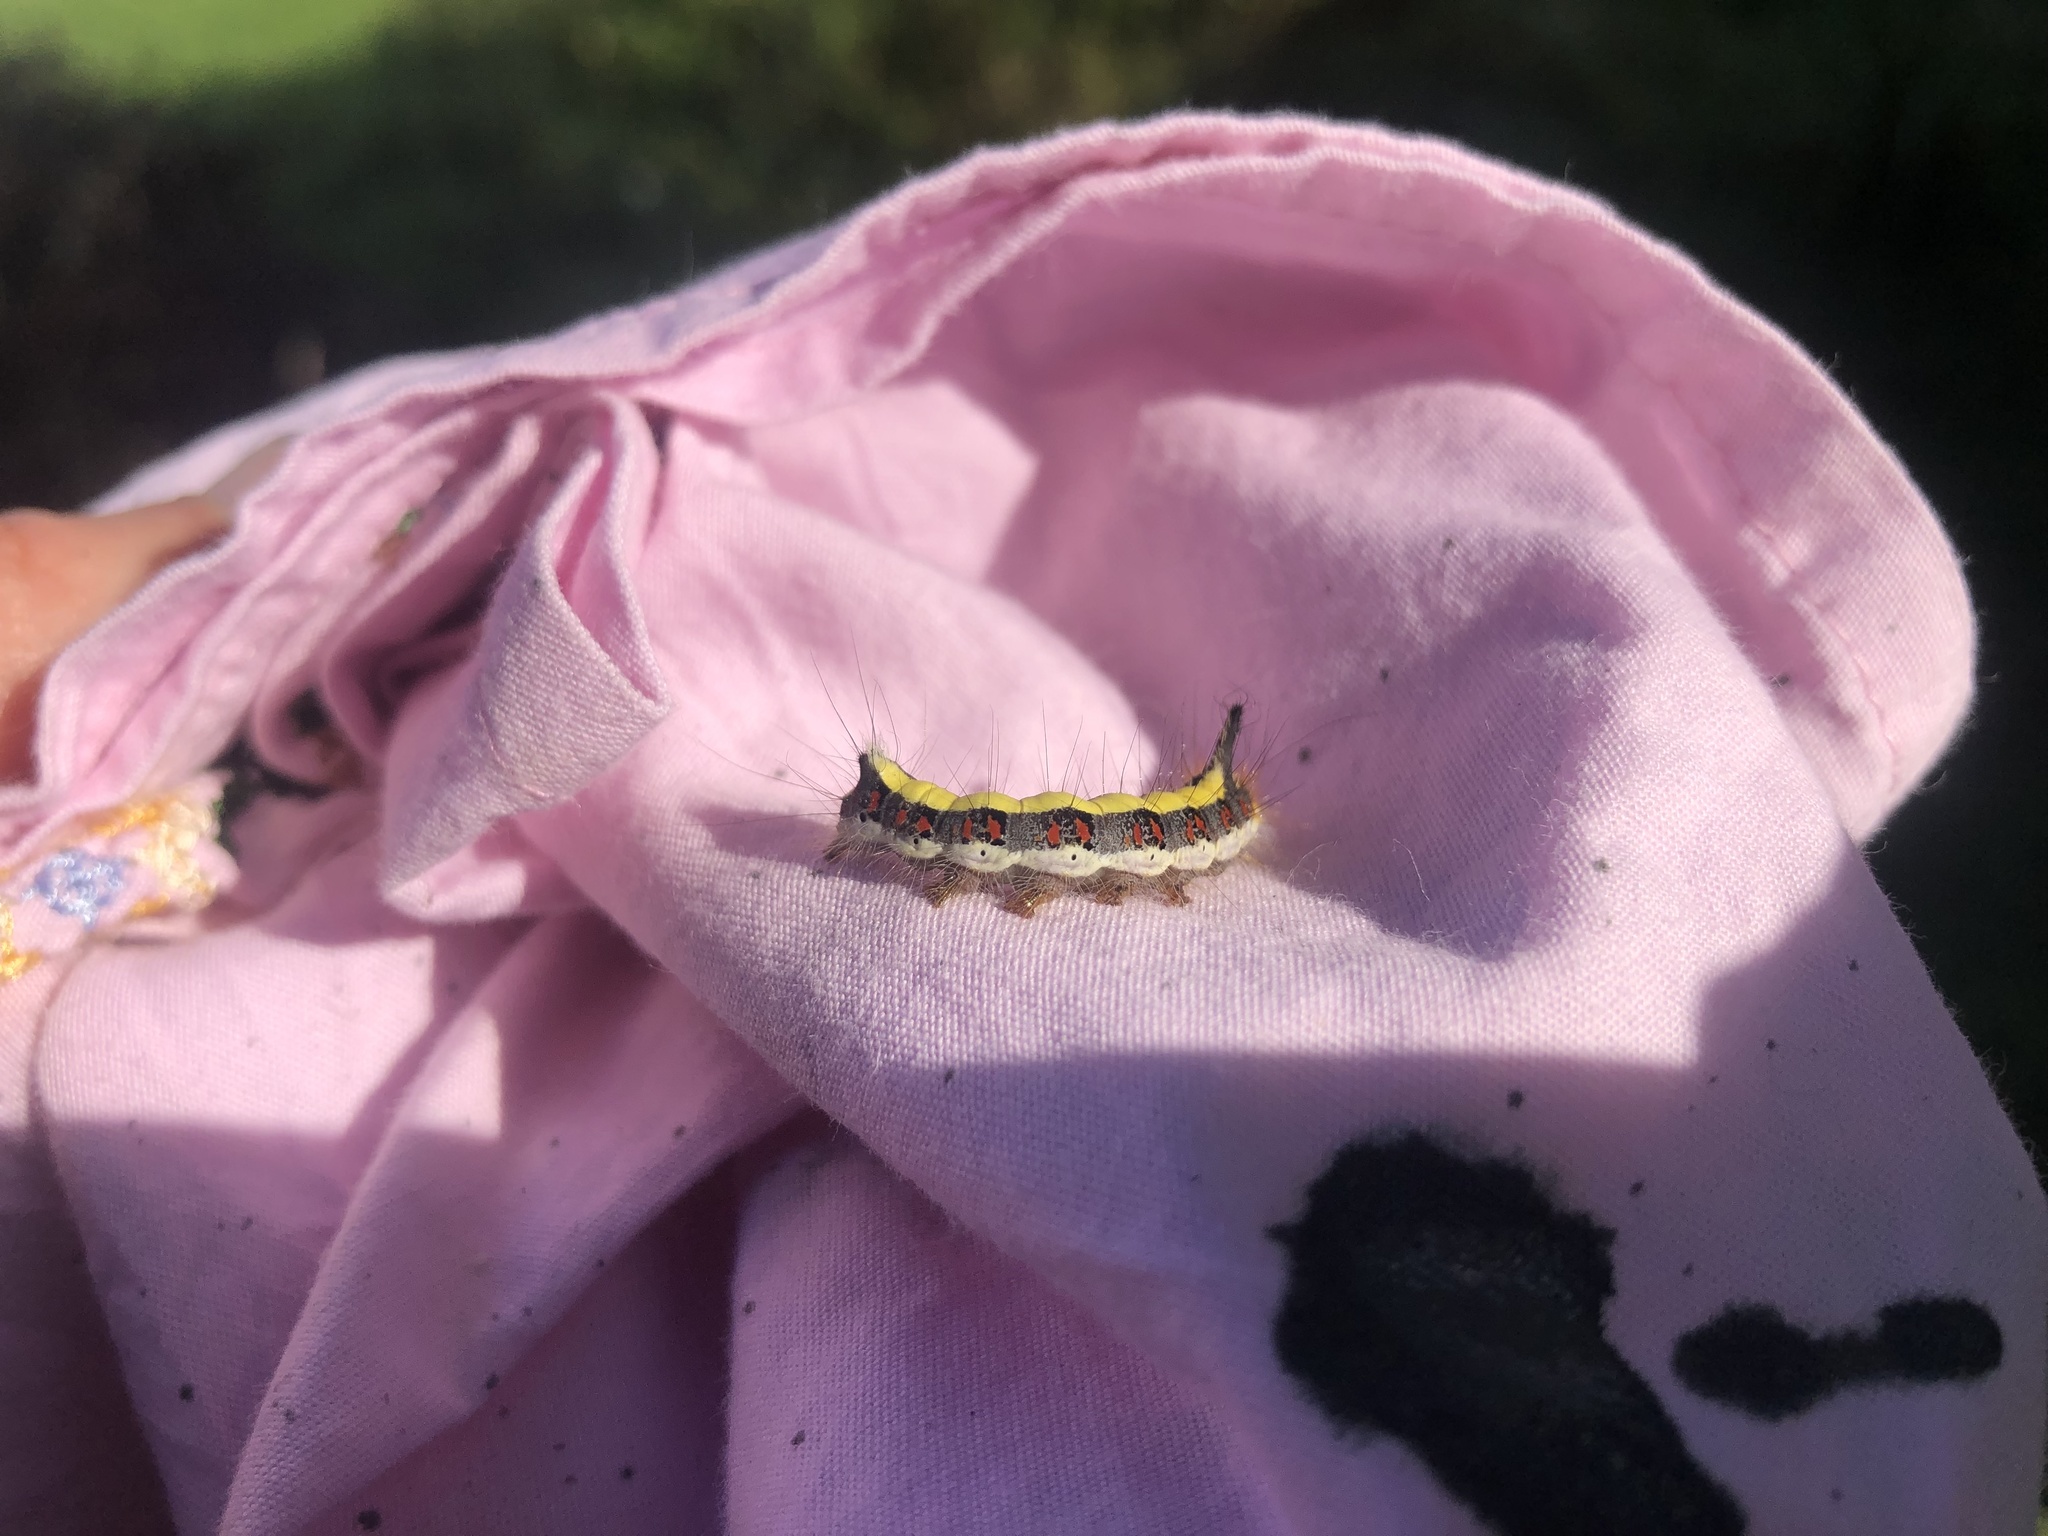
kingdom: Animalia
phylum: Arthropoda
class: Insecta
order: Lepidoptera
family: Noctuidae
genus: Acronicta
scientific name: Acronicta psi
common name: Grey dagger
